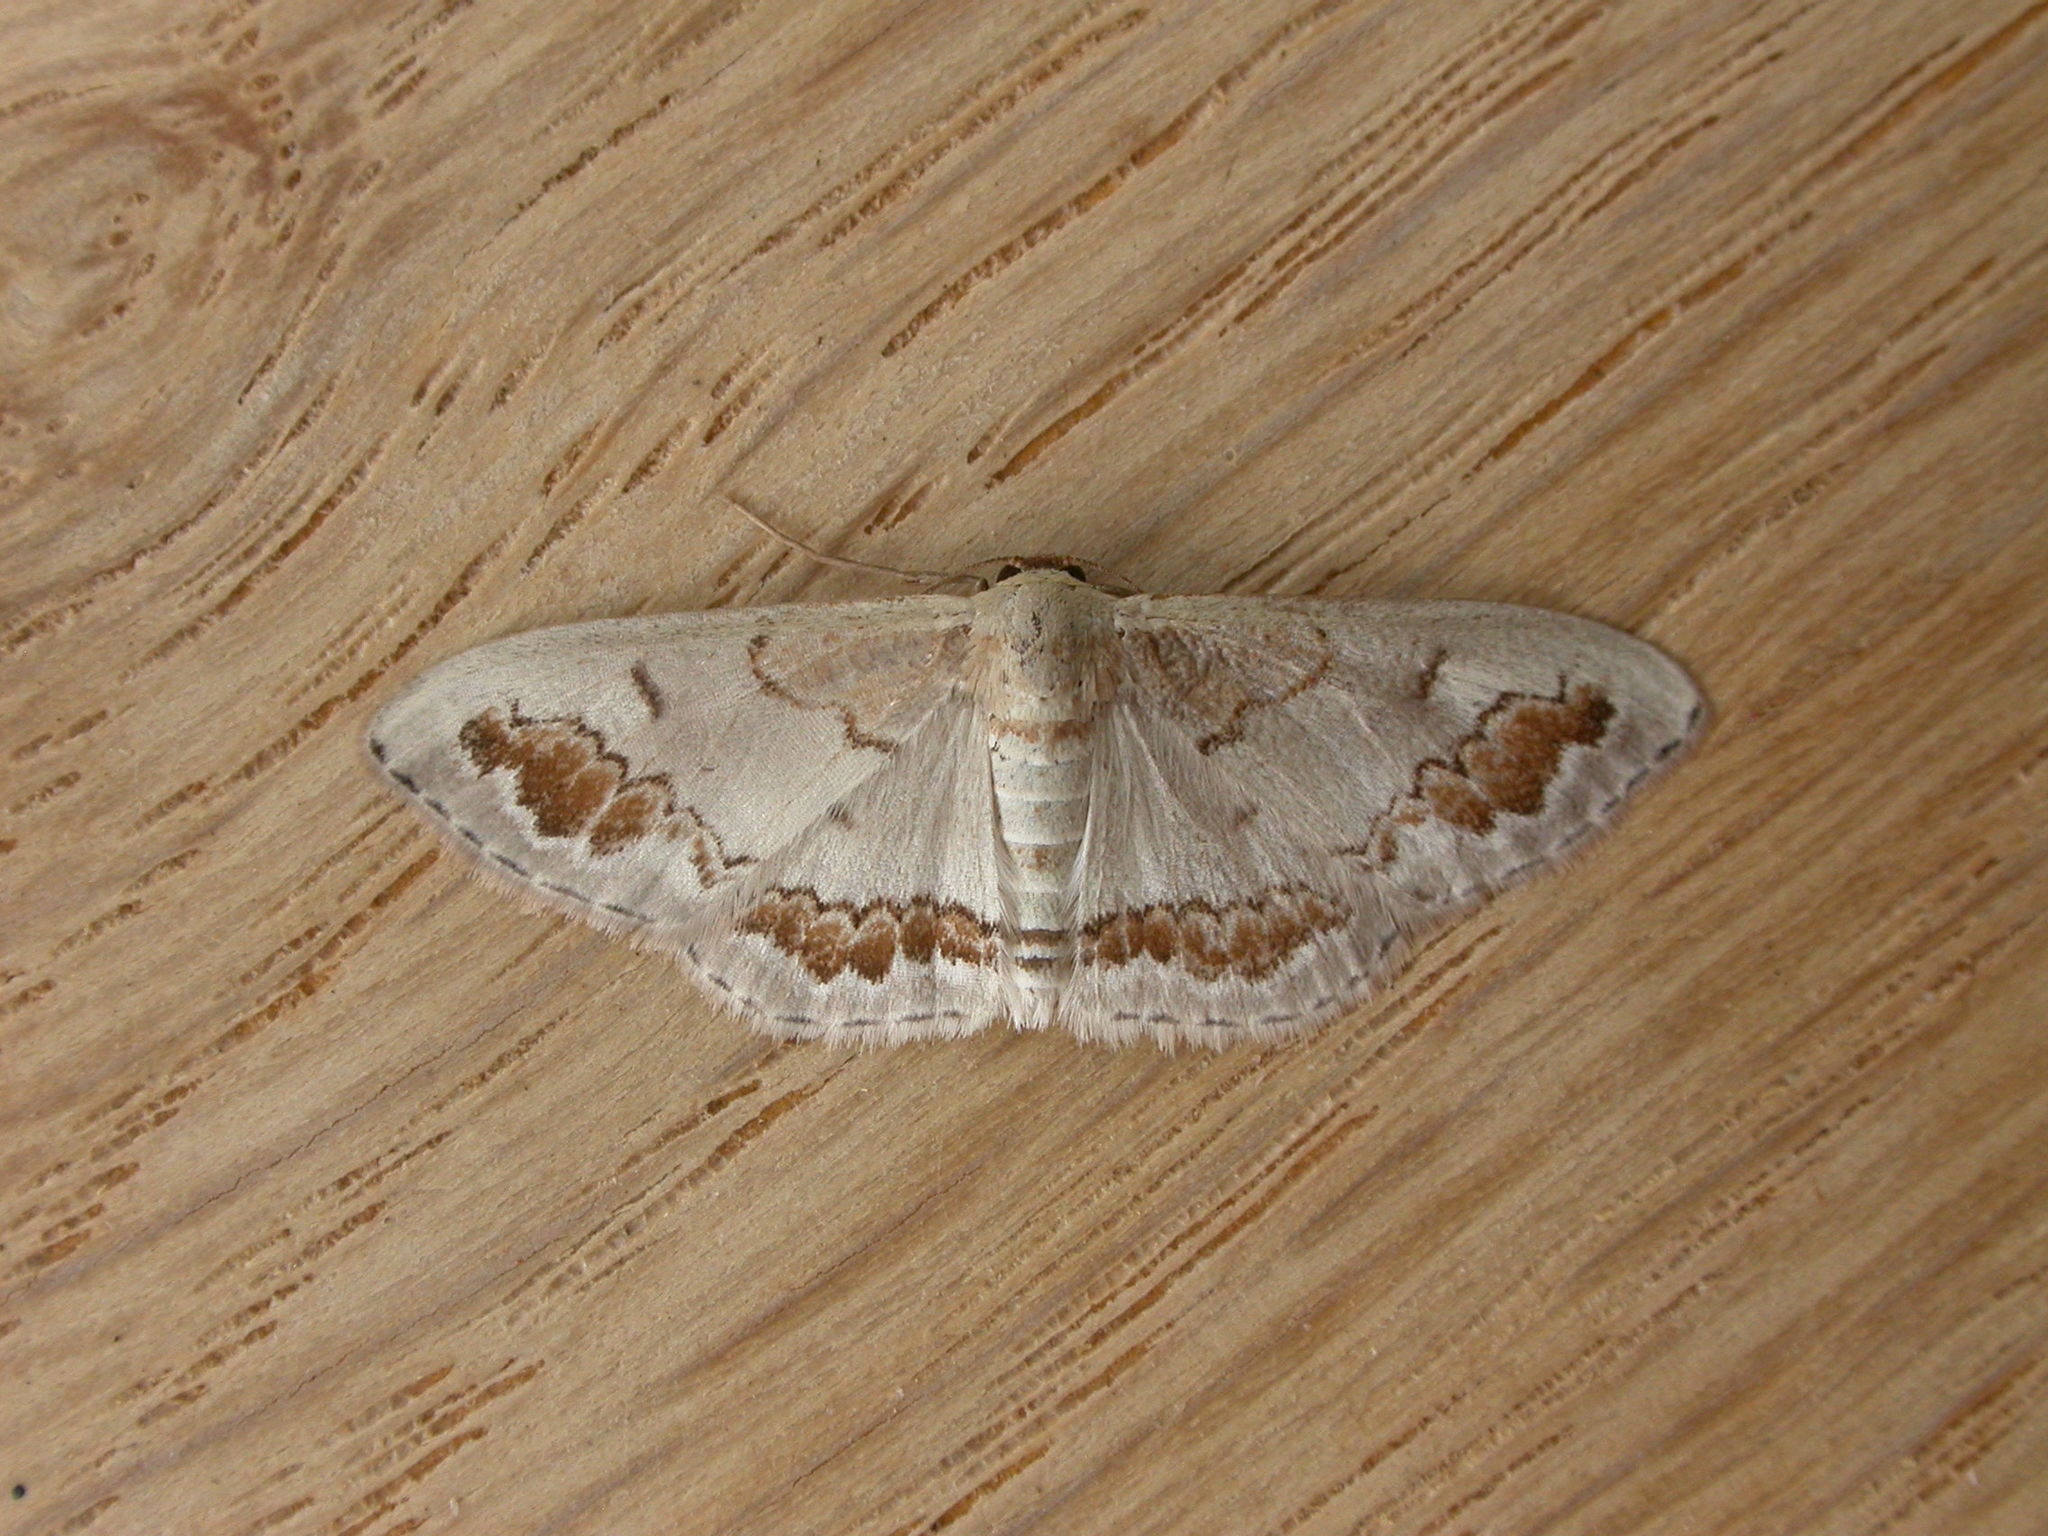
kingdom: Animalia
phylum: Arthropoda
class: Insecta
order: Lepidoptera
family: Geometridae
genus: Dithalama
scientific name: Dithalama cosmospila
